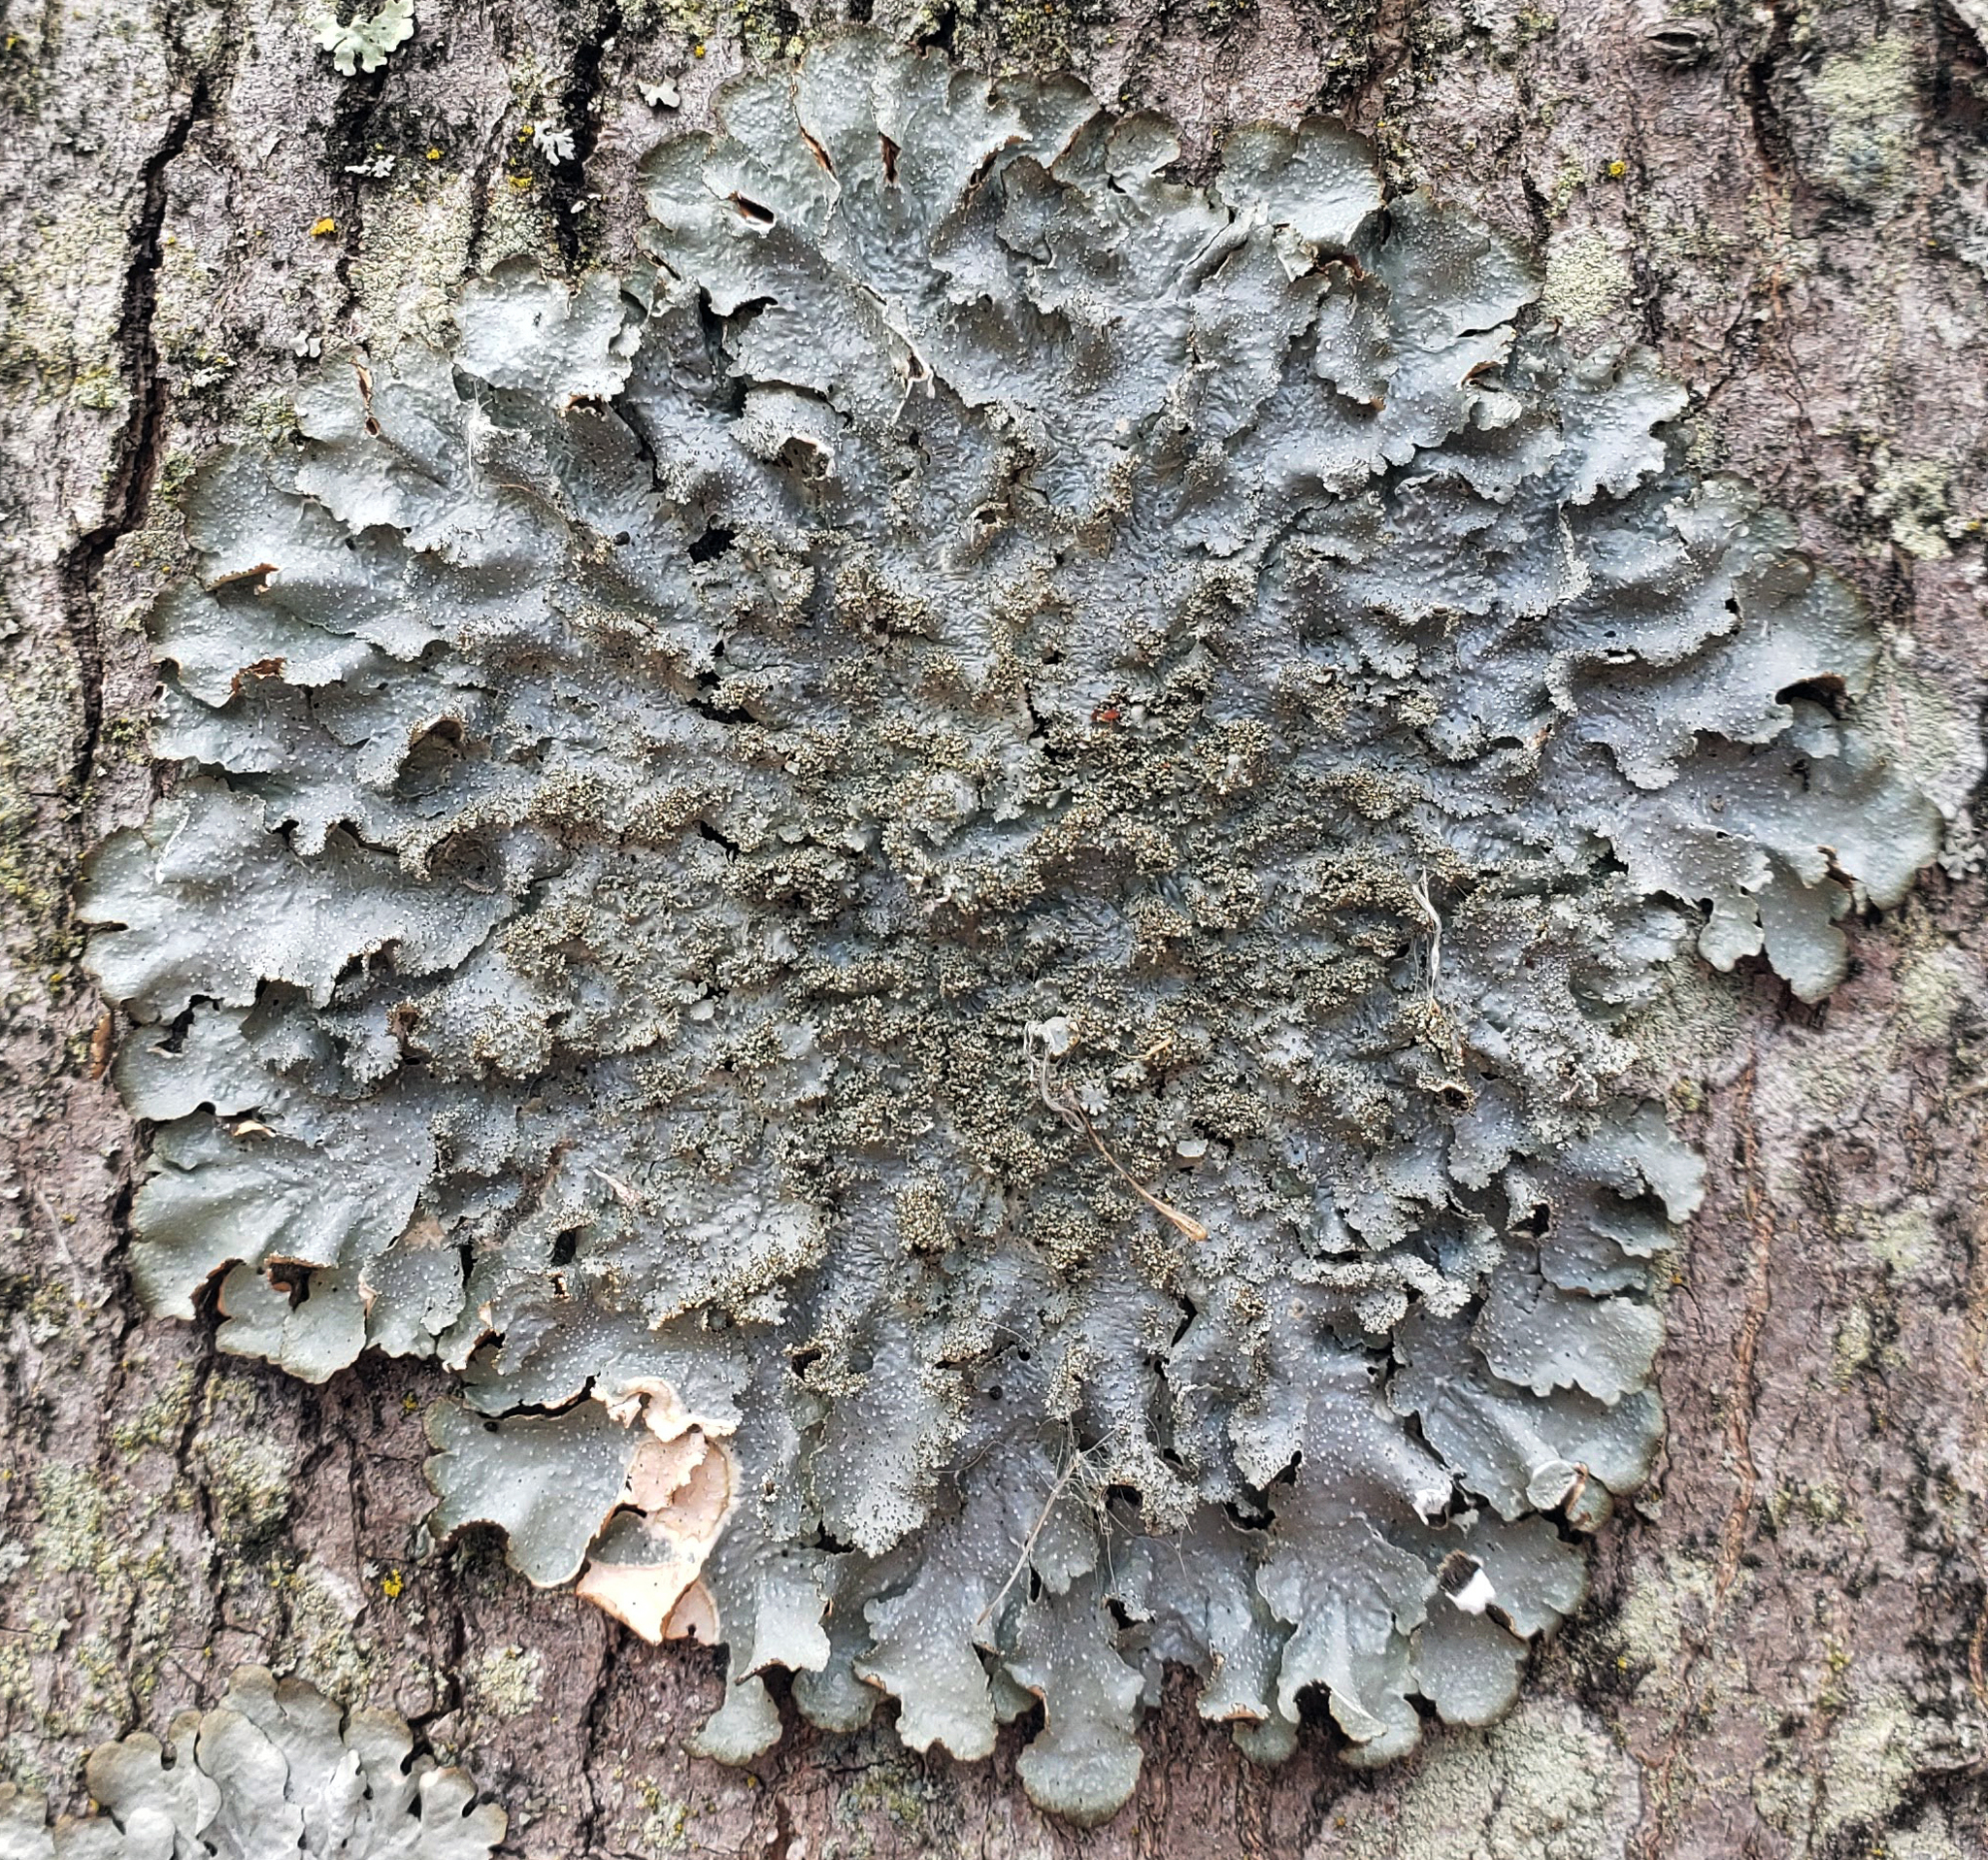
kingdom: Fungi
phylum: Ascomycota
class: Lecanoromycetes
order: Lecanorales
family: Parmeliaceae
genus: Punctelia
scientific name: Punctelia rudecta
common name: Rough speckled shield lichen
